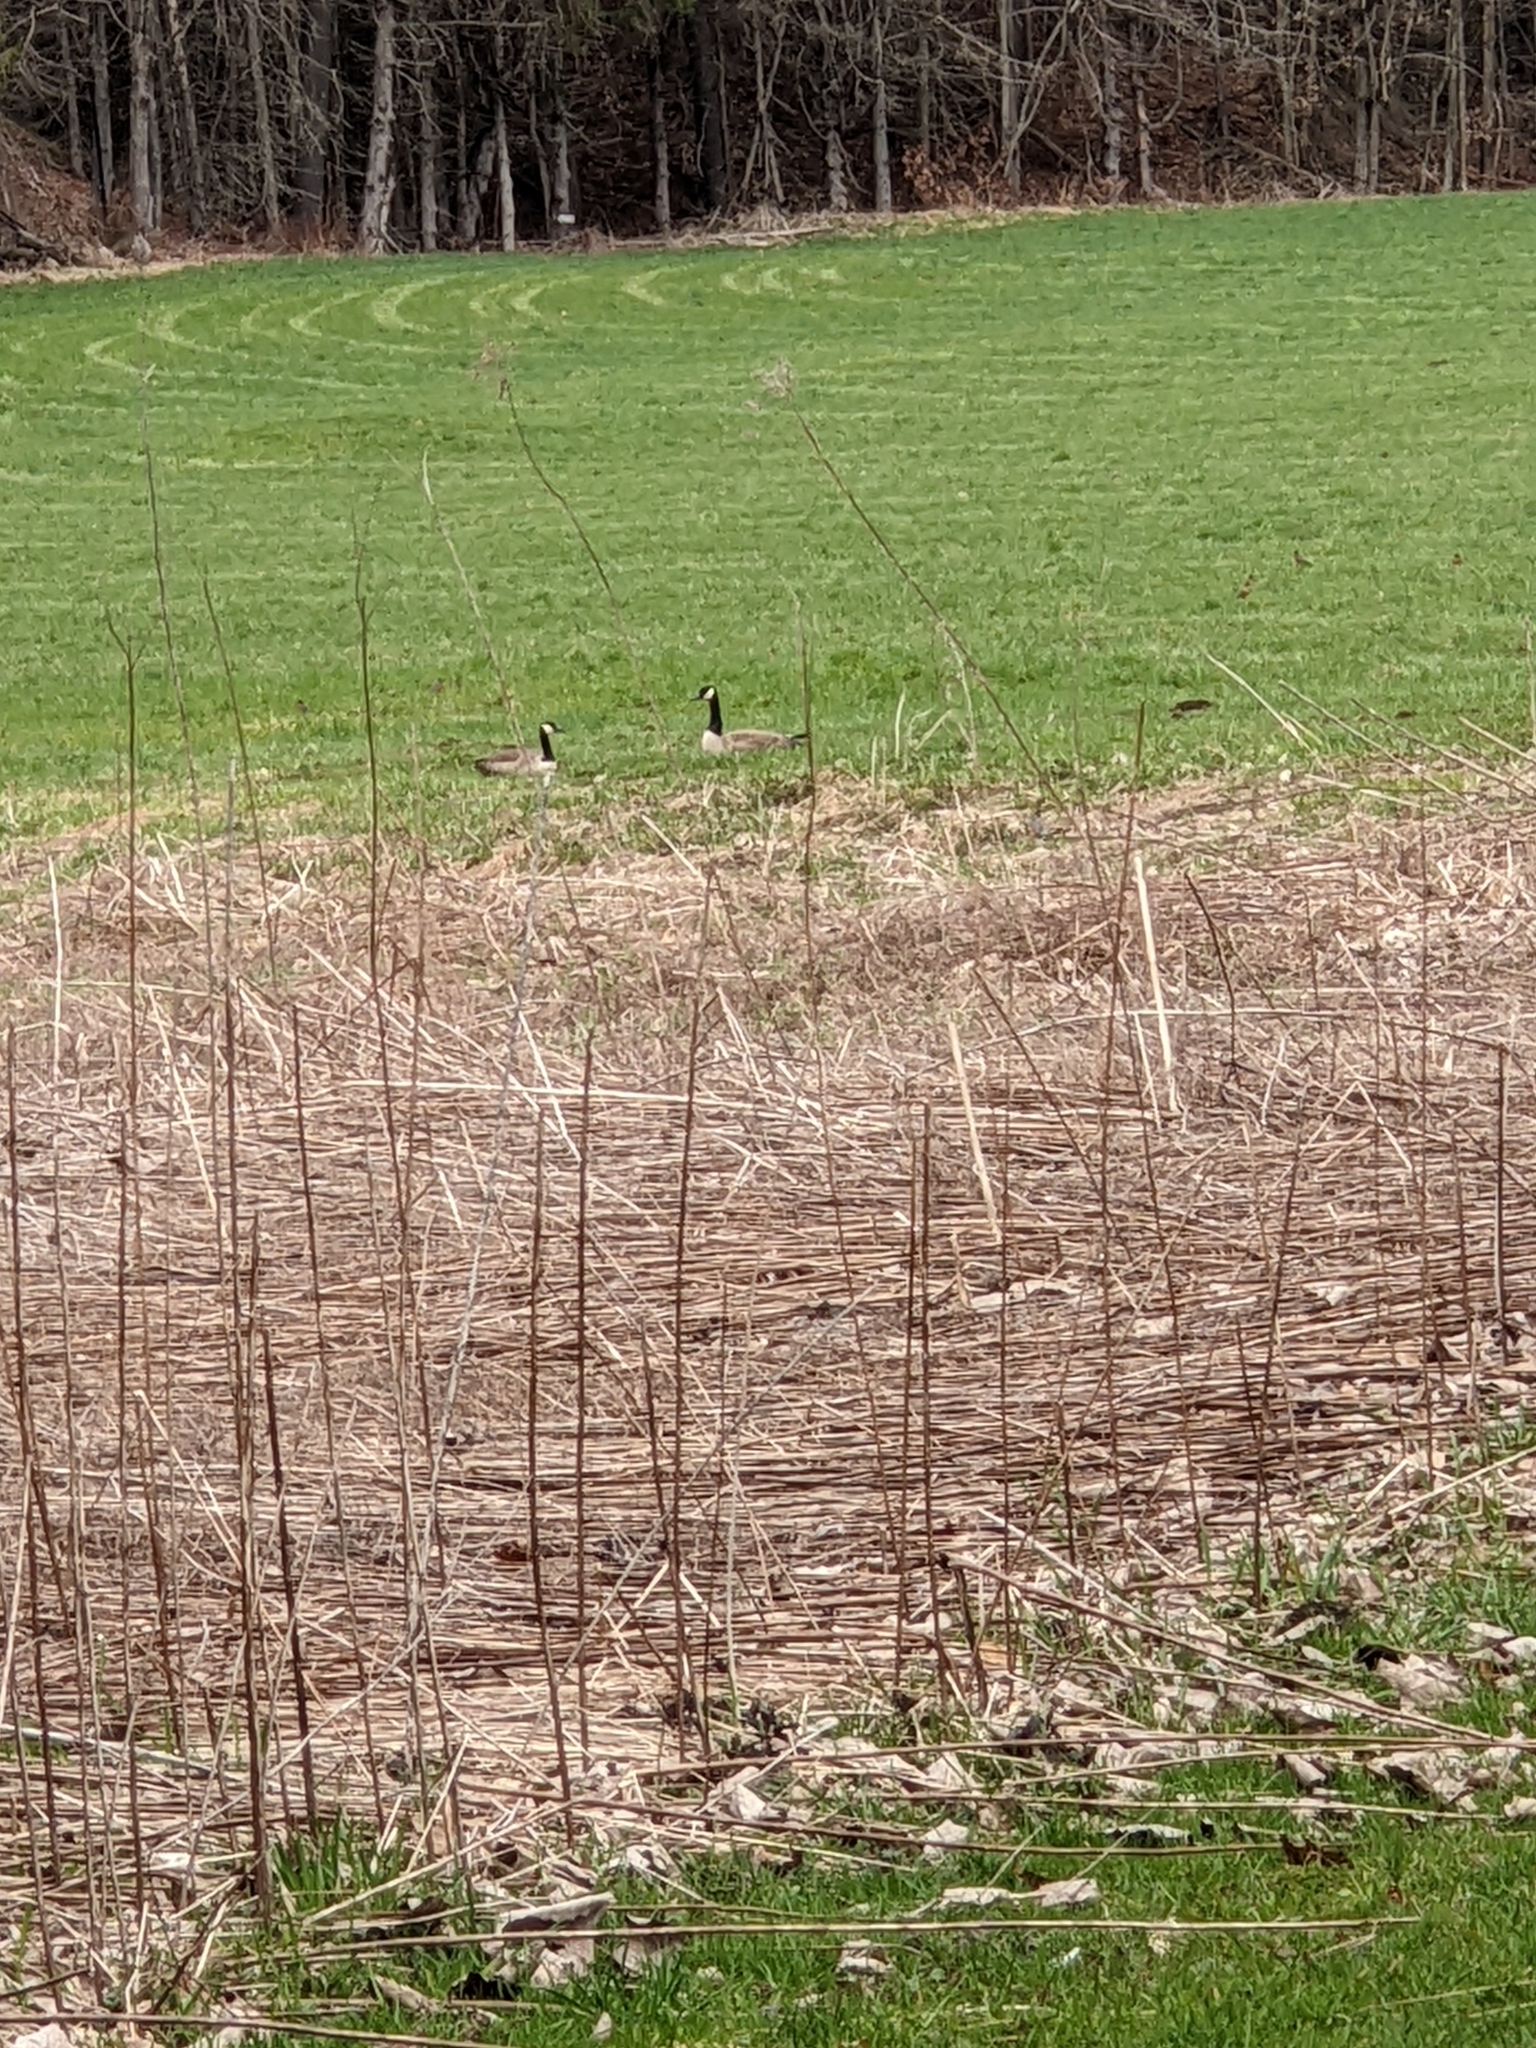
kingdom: Animalia
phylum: Chordata
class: Aves
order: Anseriformes
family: Anatidae
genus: Branta
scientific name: Branta canadensis
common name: Canada goose
